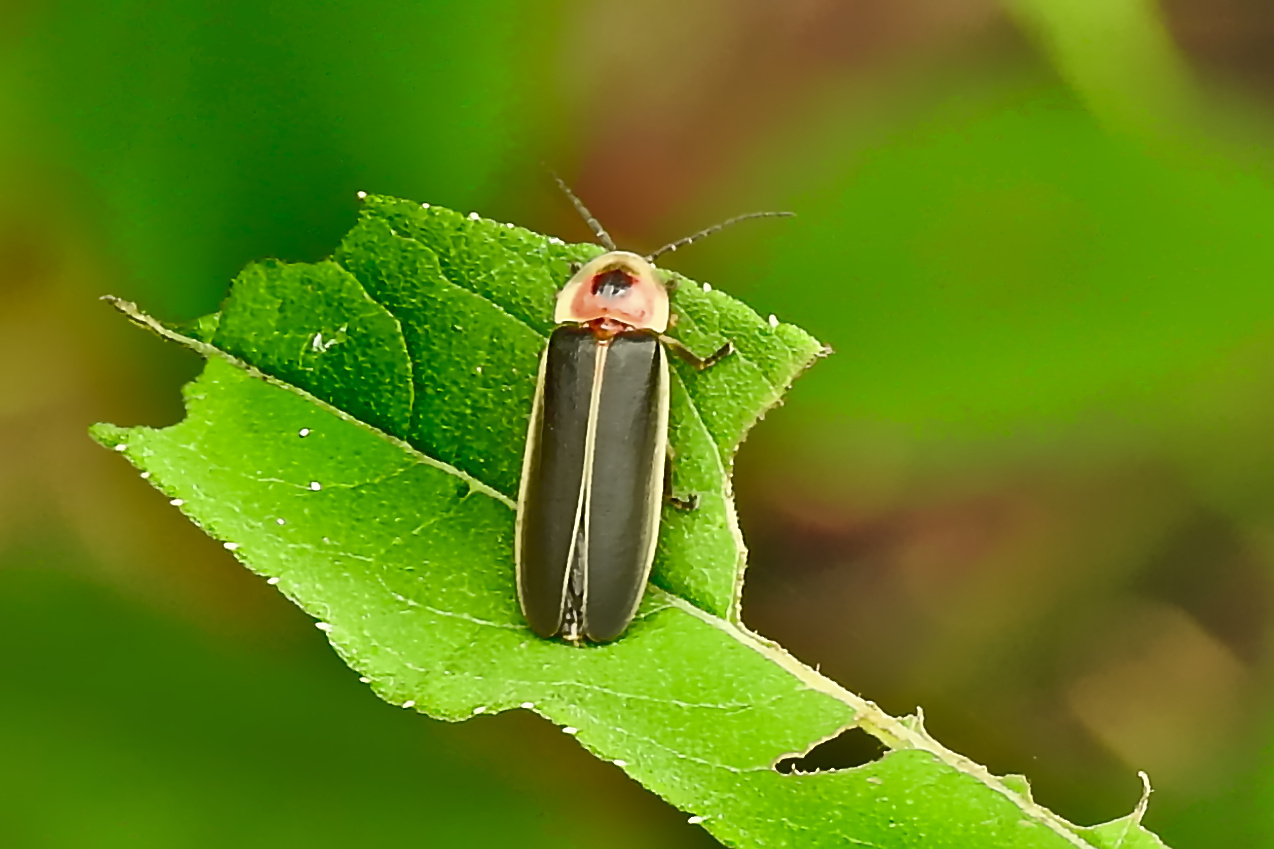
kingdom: Animalia
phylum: Arthropoda
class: Insecta
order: Coleoptera
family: Lampyridae
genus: Photinus
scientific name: Photinus
